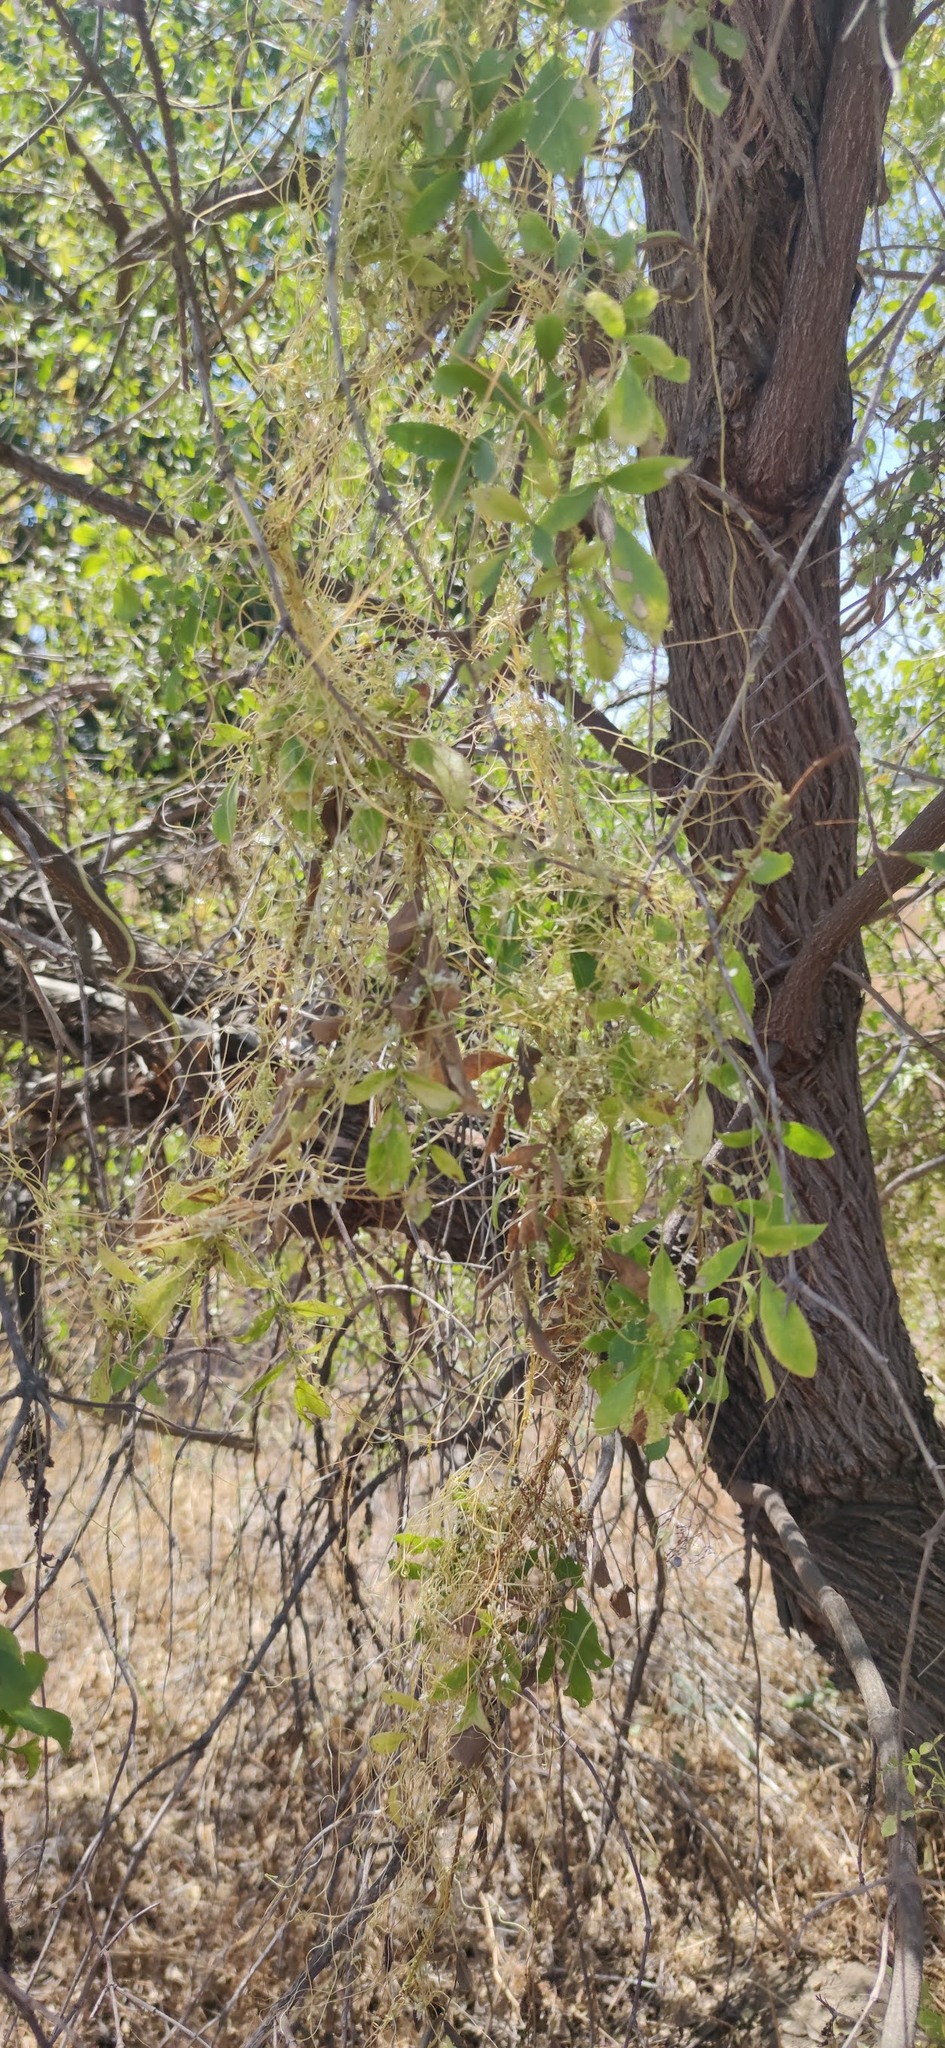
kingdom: Plantae
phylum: Tracheophyta
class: Magnoliopsida
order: Dipsacales
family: Viburnaceae
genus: Sambucus
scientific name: Sambucus cerulea
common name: Blue elder
